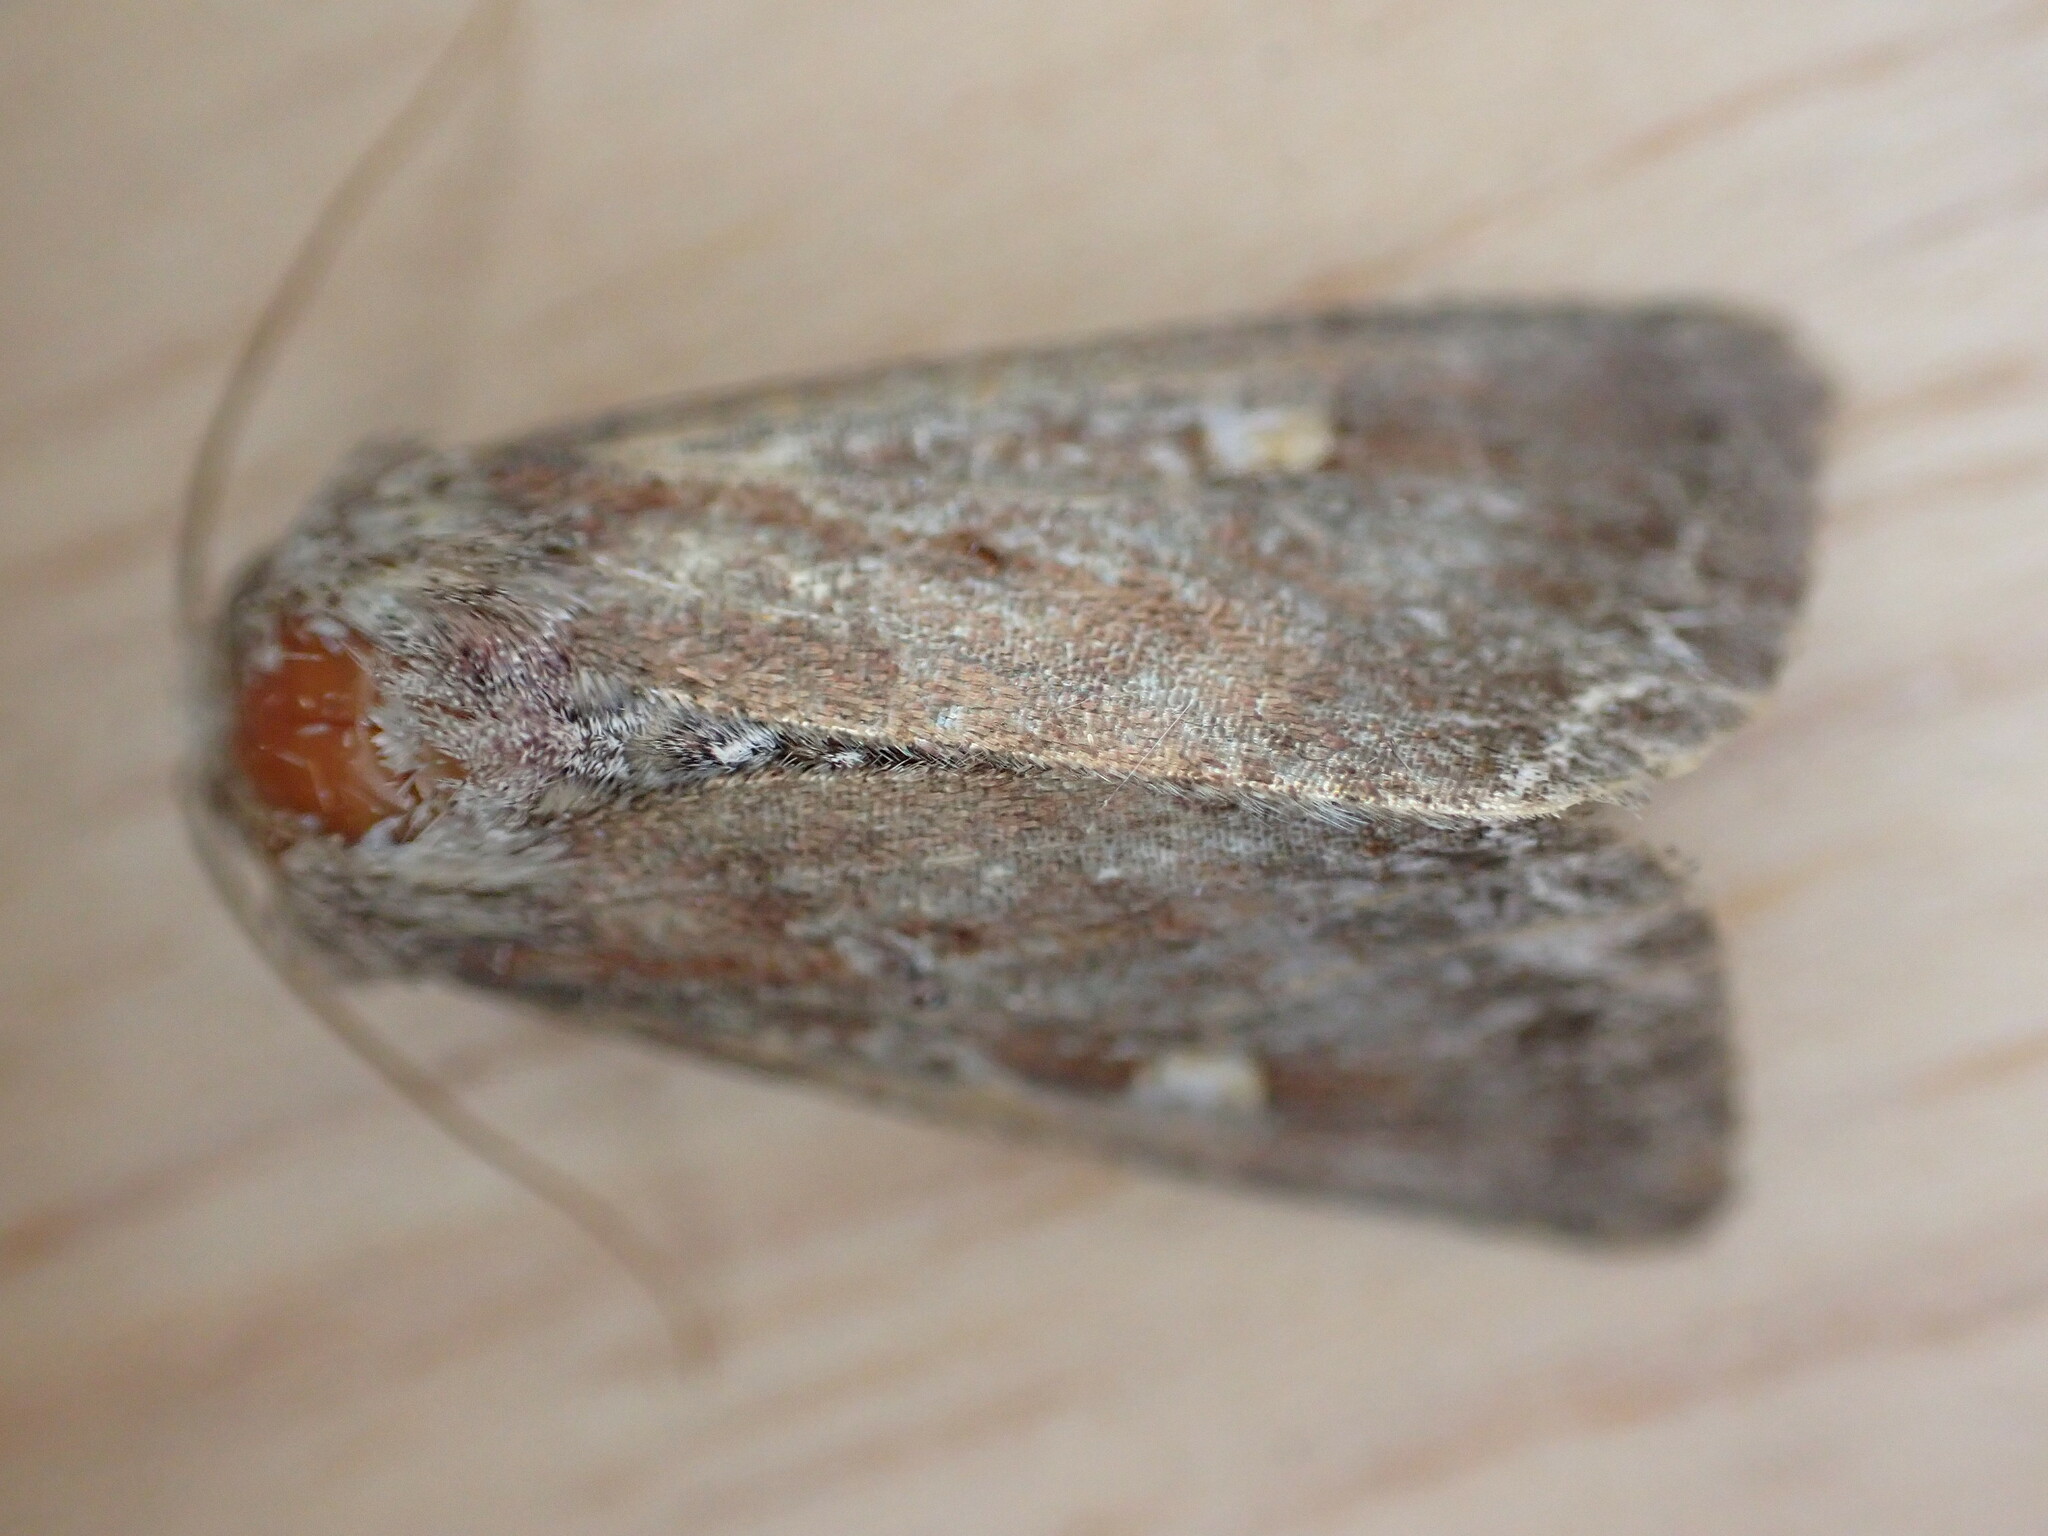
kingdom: Animalia
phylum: Arthropoda
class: Insecta
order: Lepidoptera
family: Noctuidae
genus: Lacanobia
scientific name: Lacanobia oleracea
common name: Bright-line brown-eye
